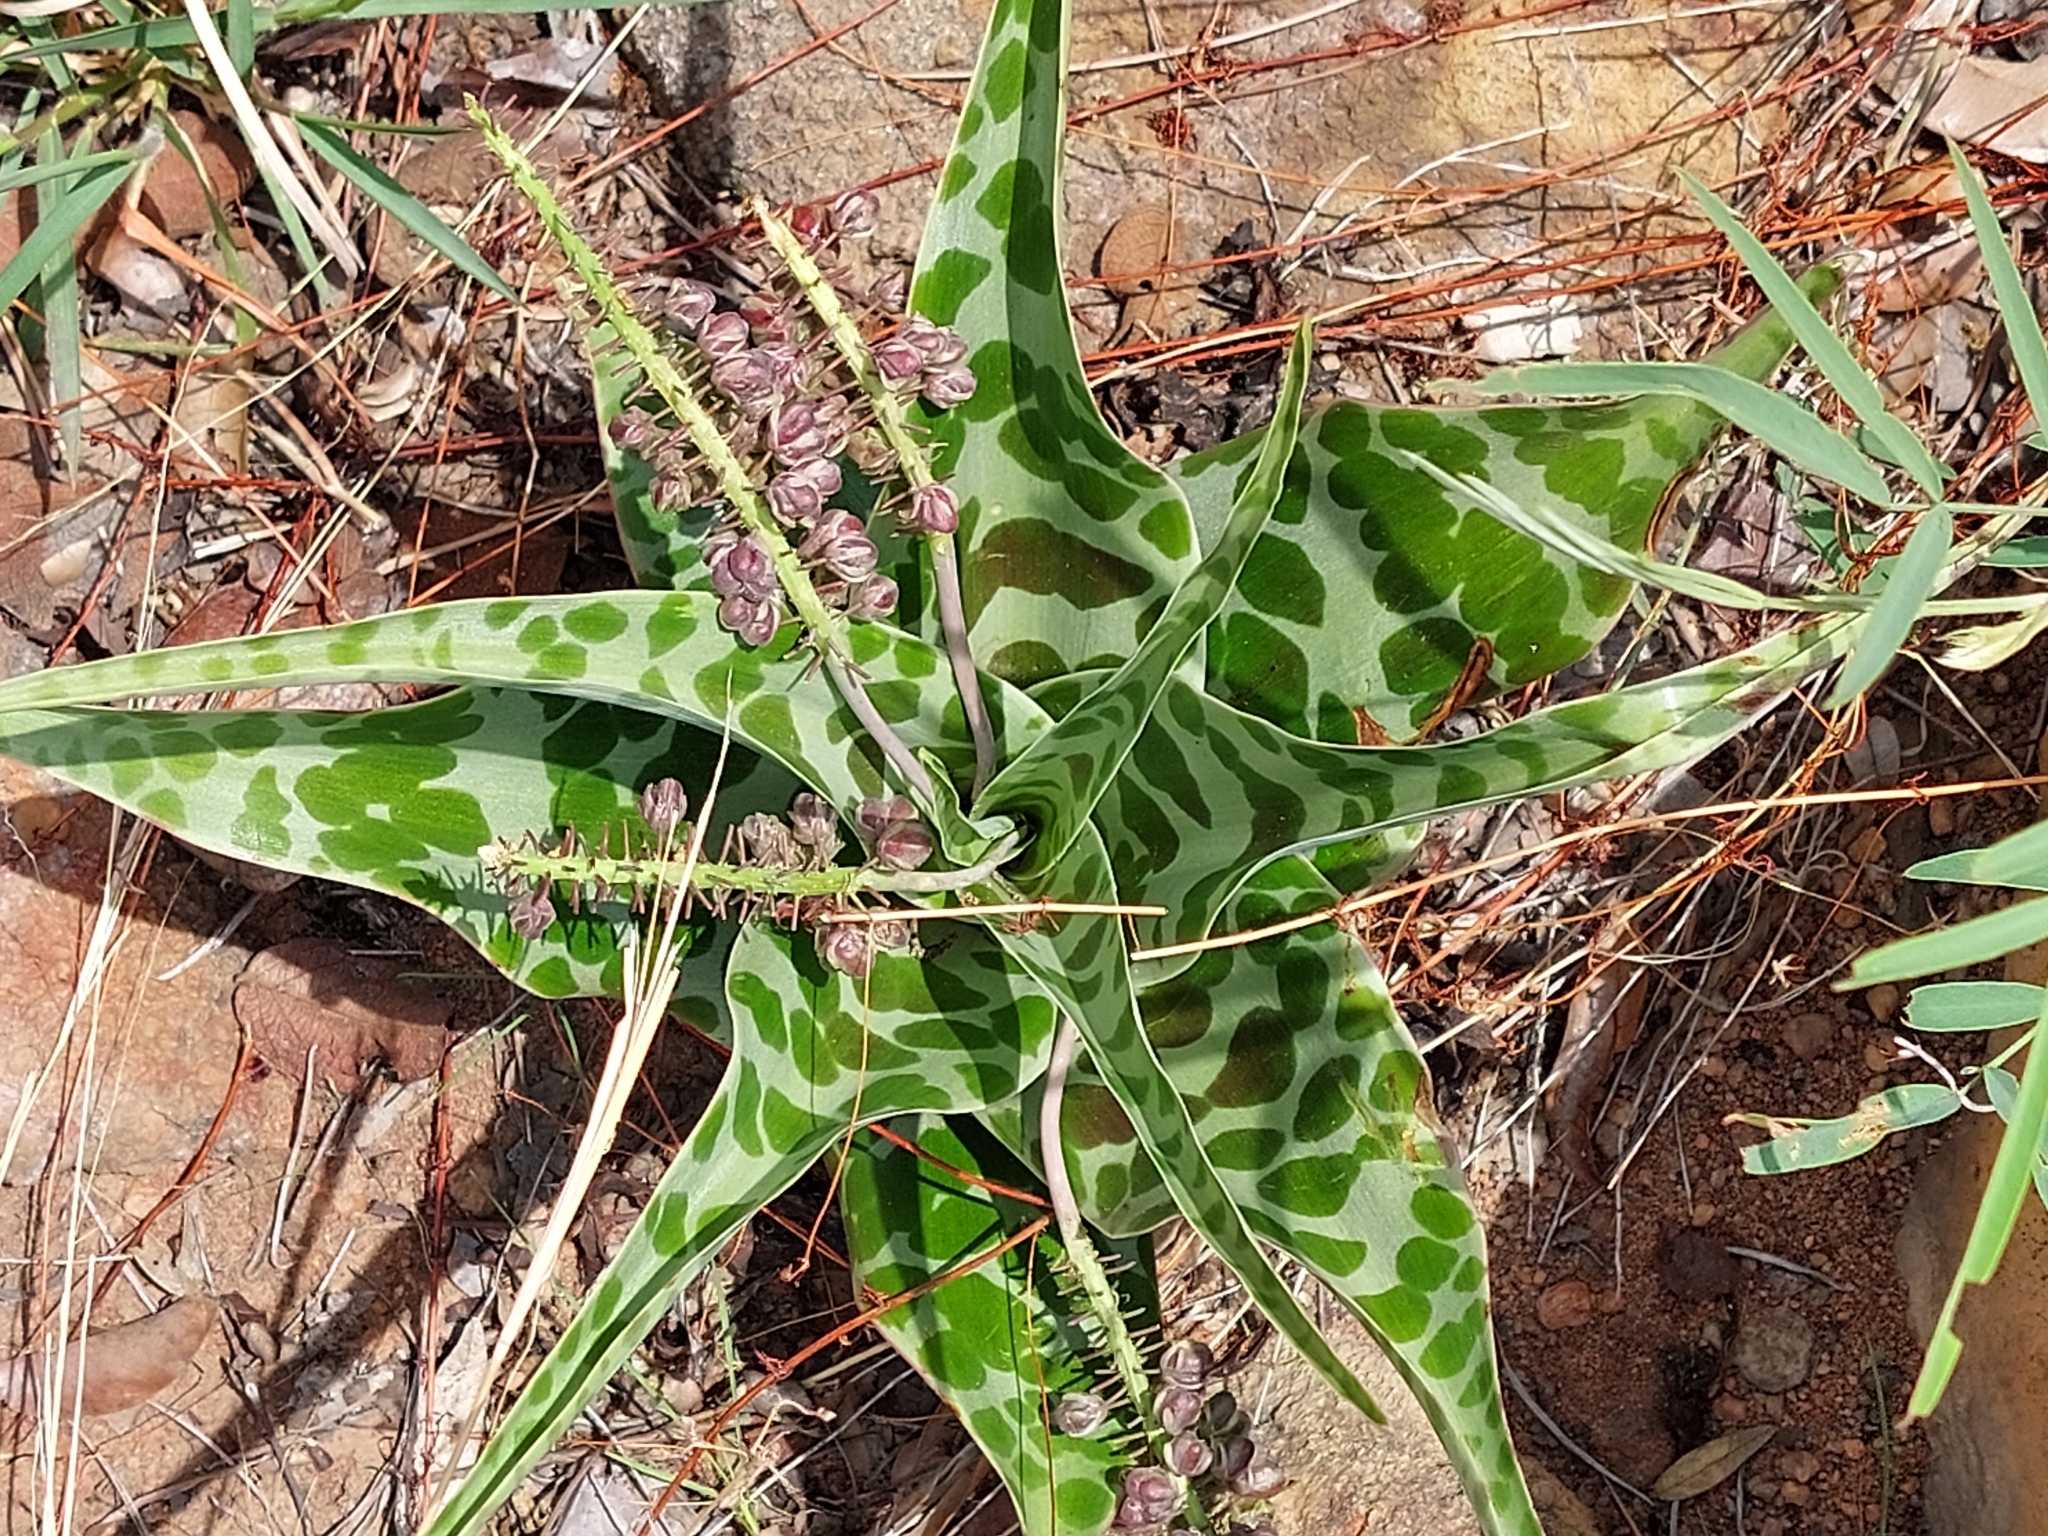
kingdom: Plantae
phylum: Tracheophyta
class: Liliopsida
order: Asparagales
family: Asparagaceae
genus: Ledebouria
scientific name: Ledebouria inquinata
